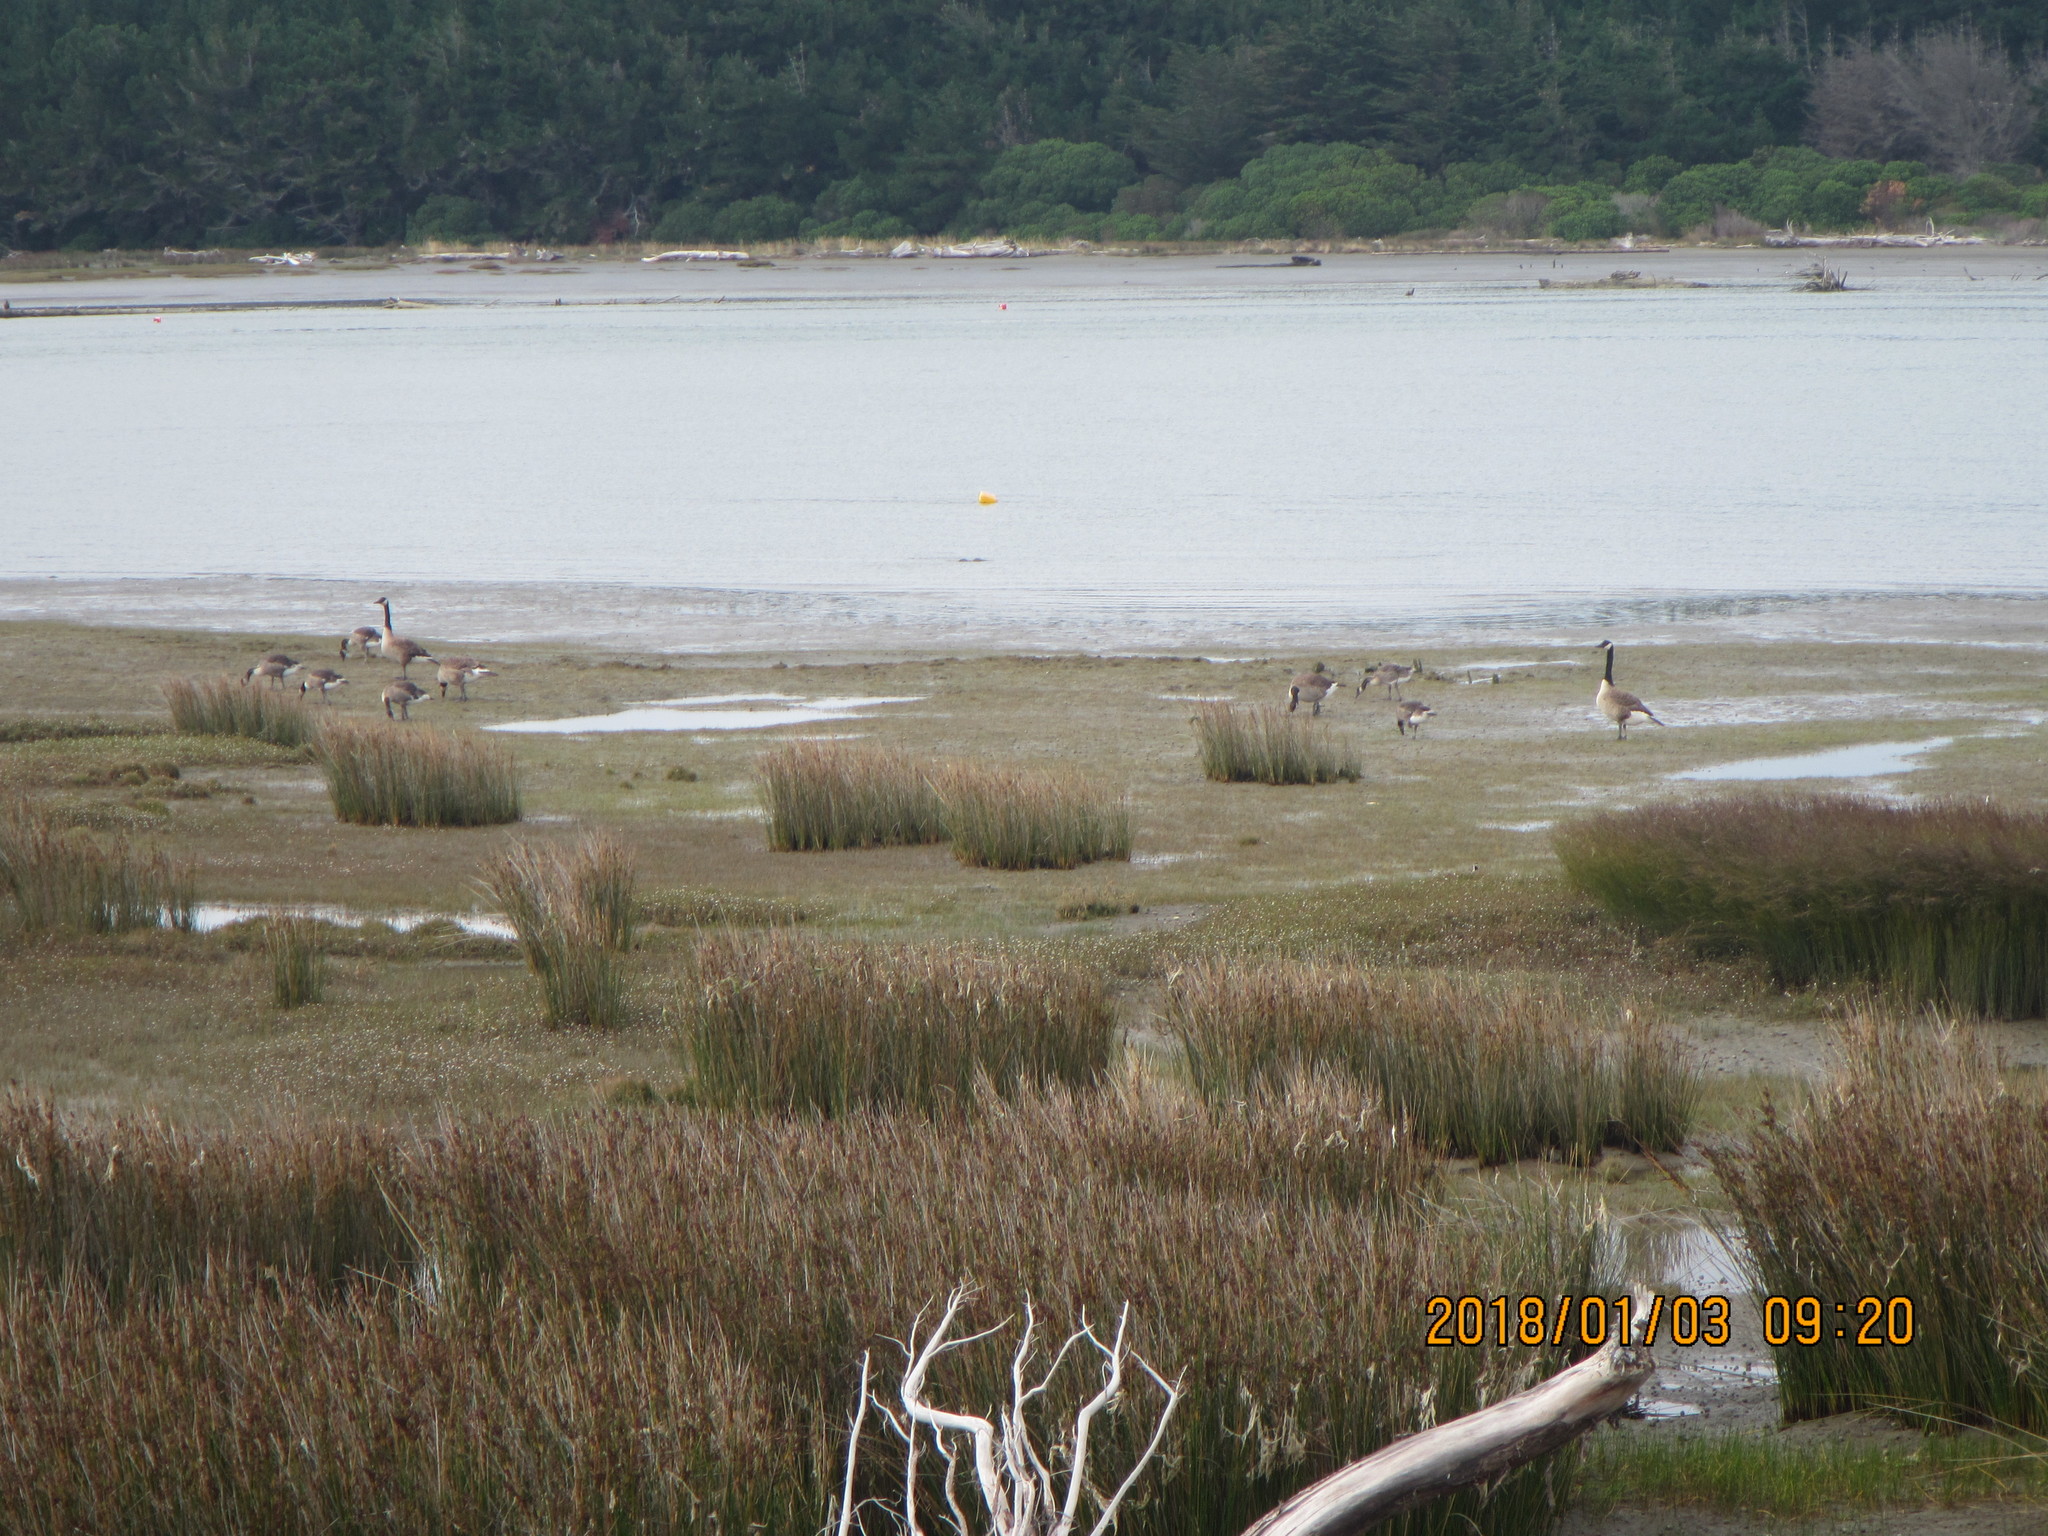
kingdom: Animalia
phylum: Chordata
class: Aves
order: Anseriformes
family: Anatidae
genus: Branta
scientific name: Branta canadensis
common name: Canada goose
